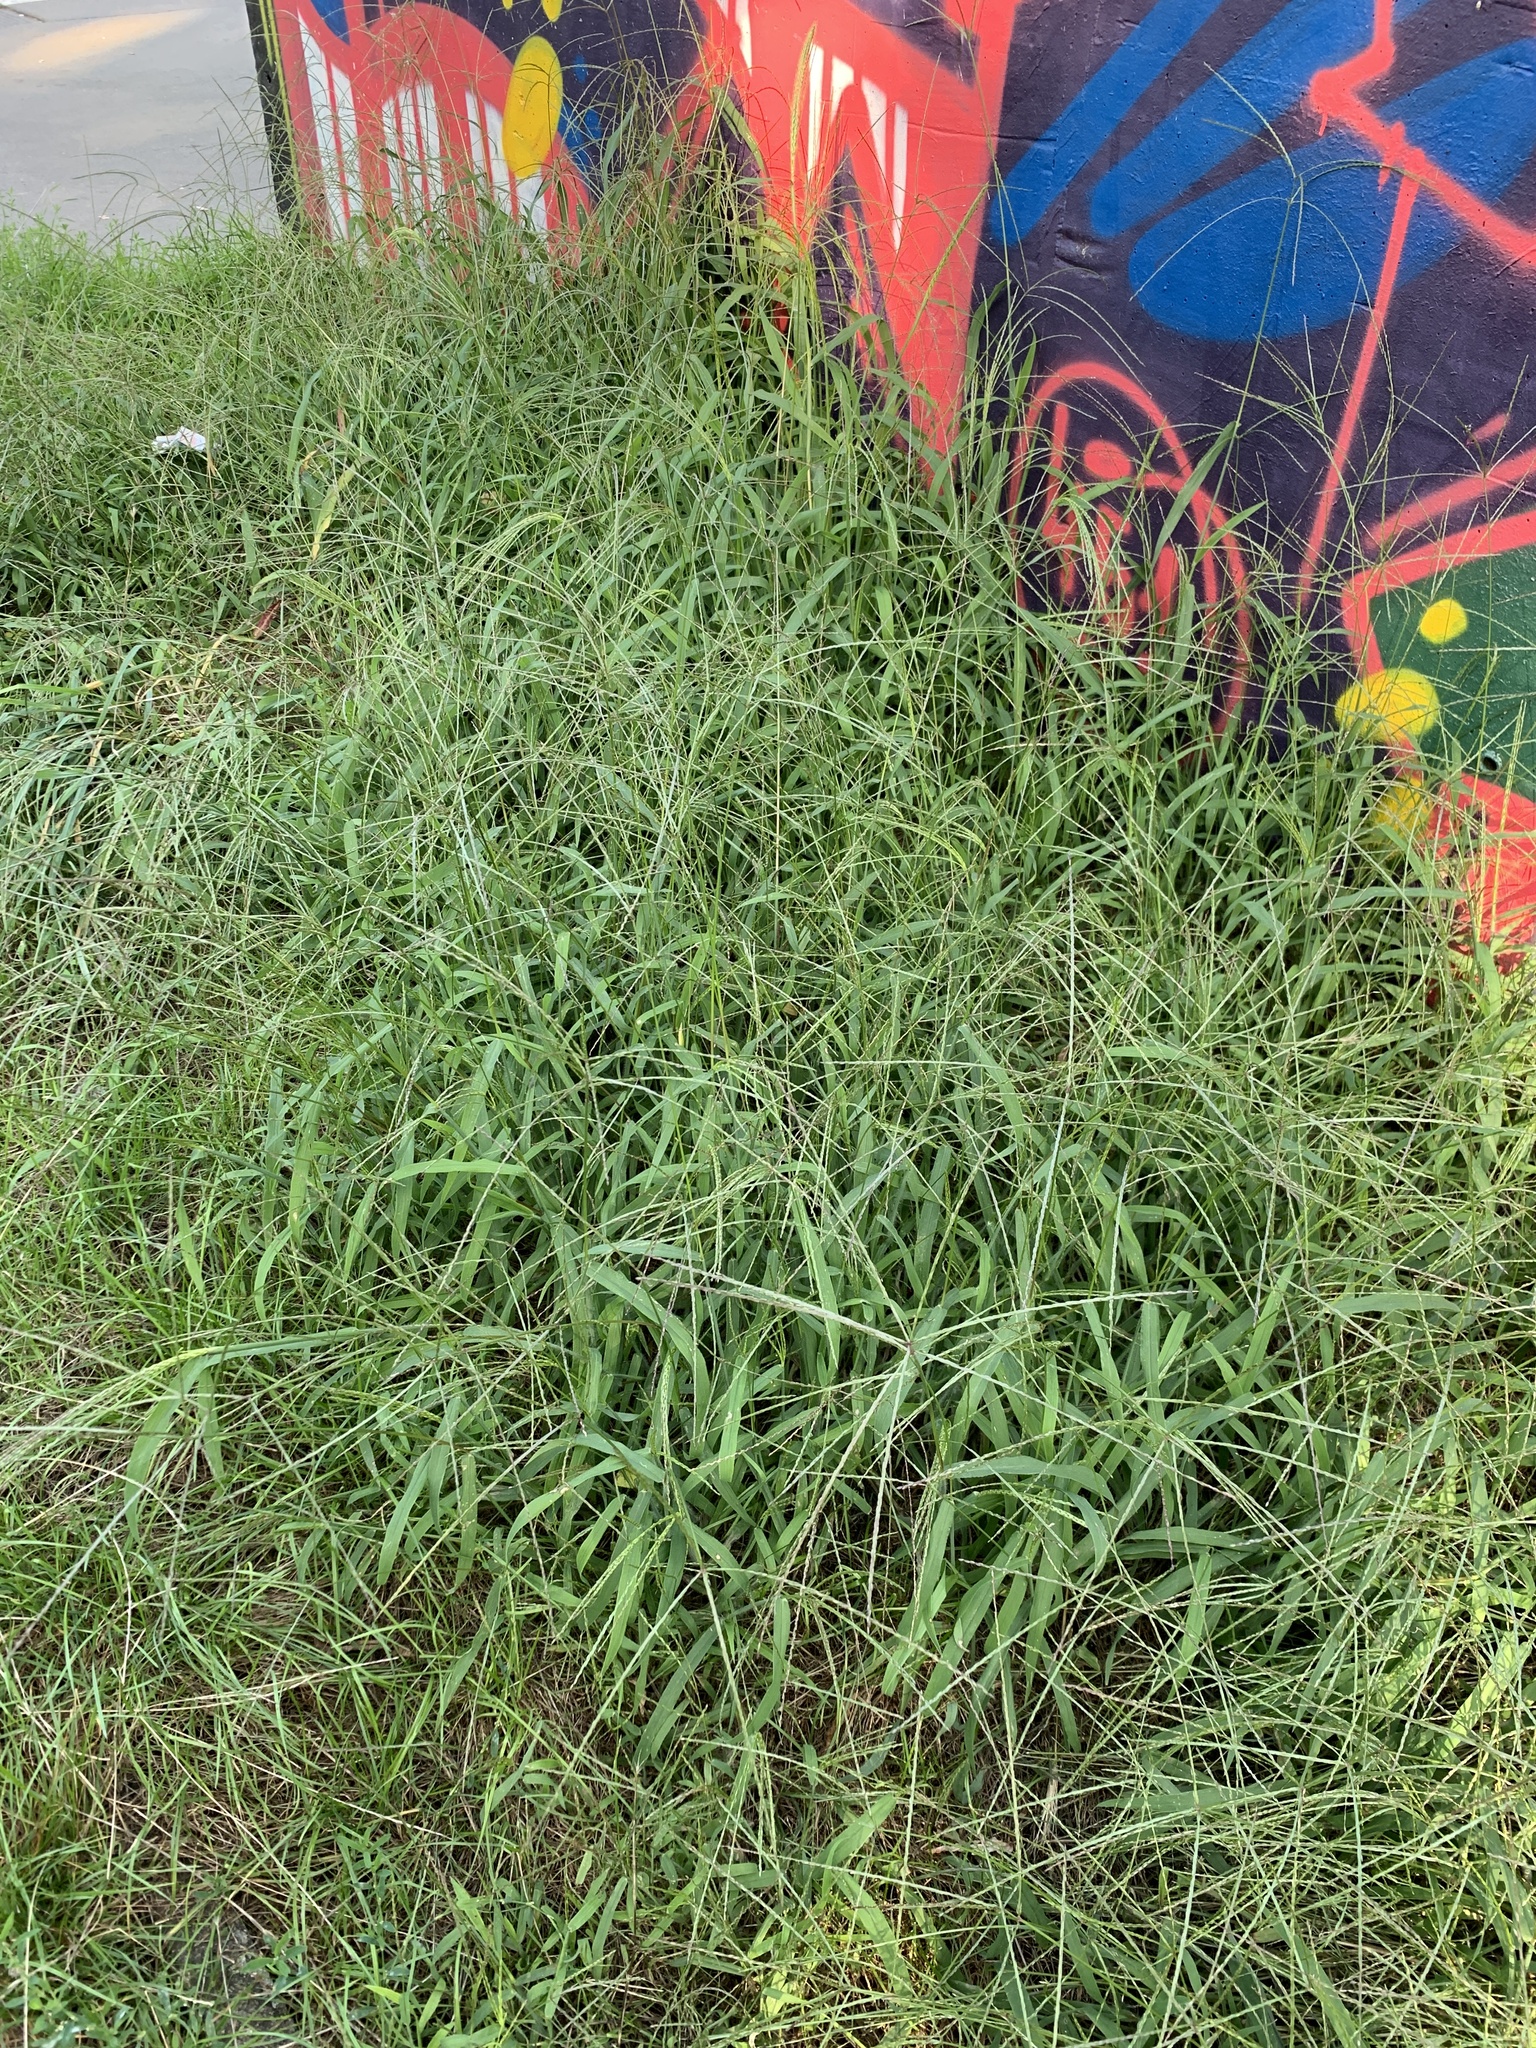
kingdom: Plantae
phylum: Tracheophyta
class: Liliopsida
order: Poales
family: Poaceae
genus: Digitaria
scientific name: Digitaria sanguinalis
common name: Hairy crabgrass
